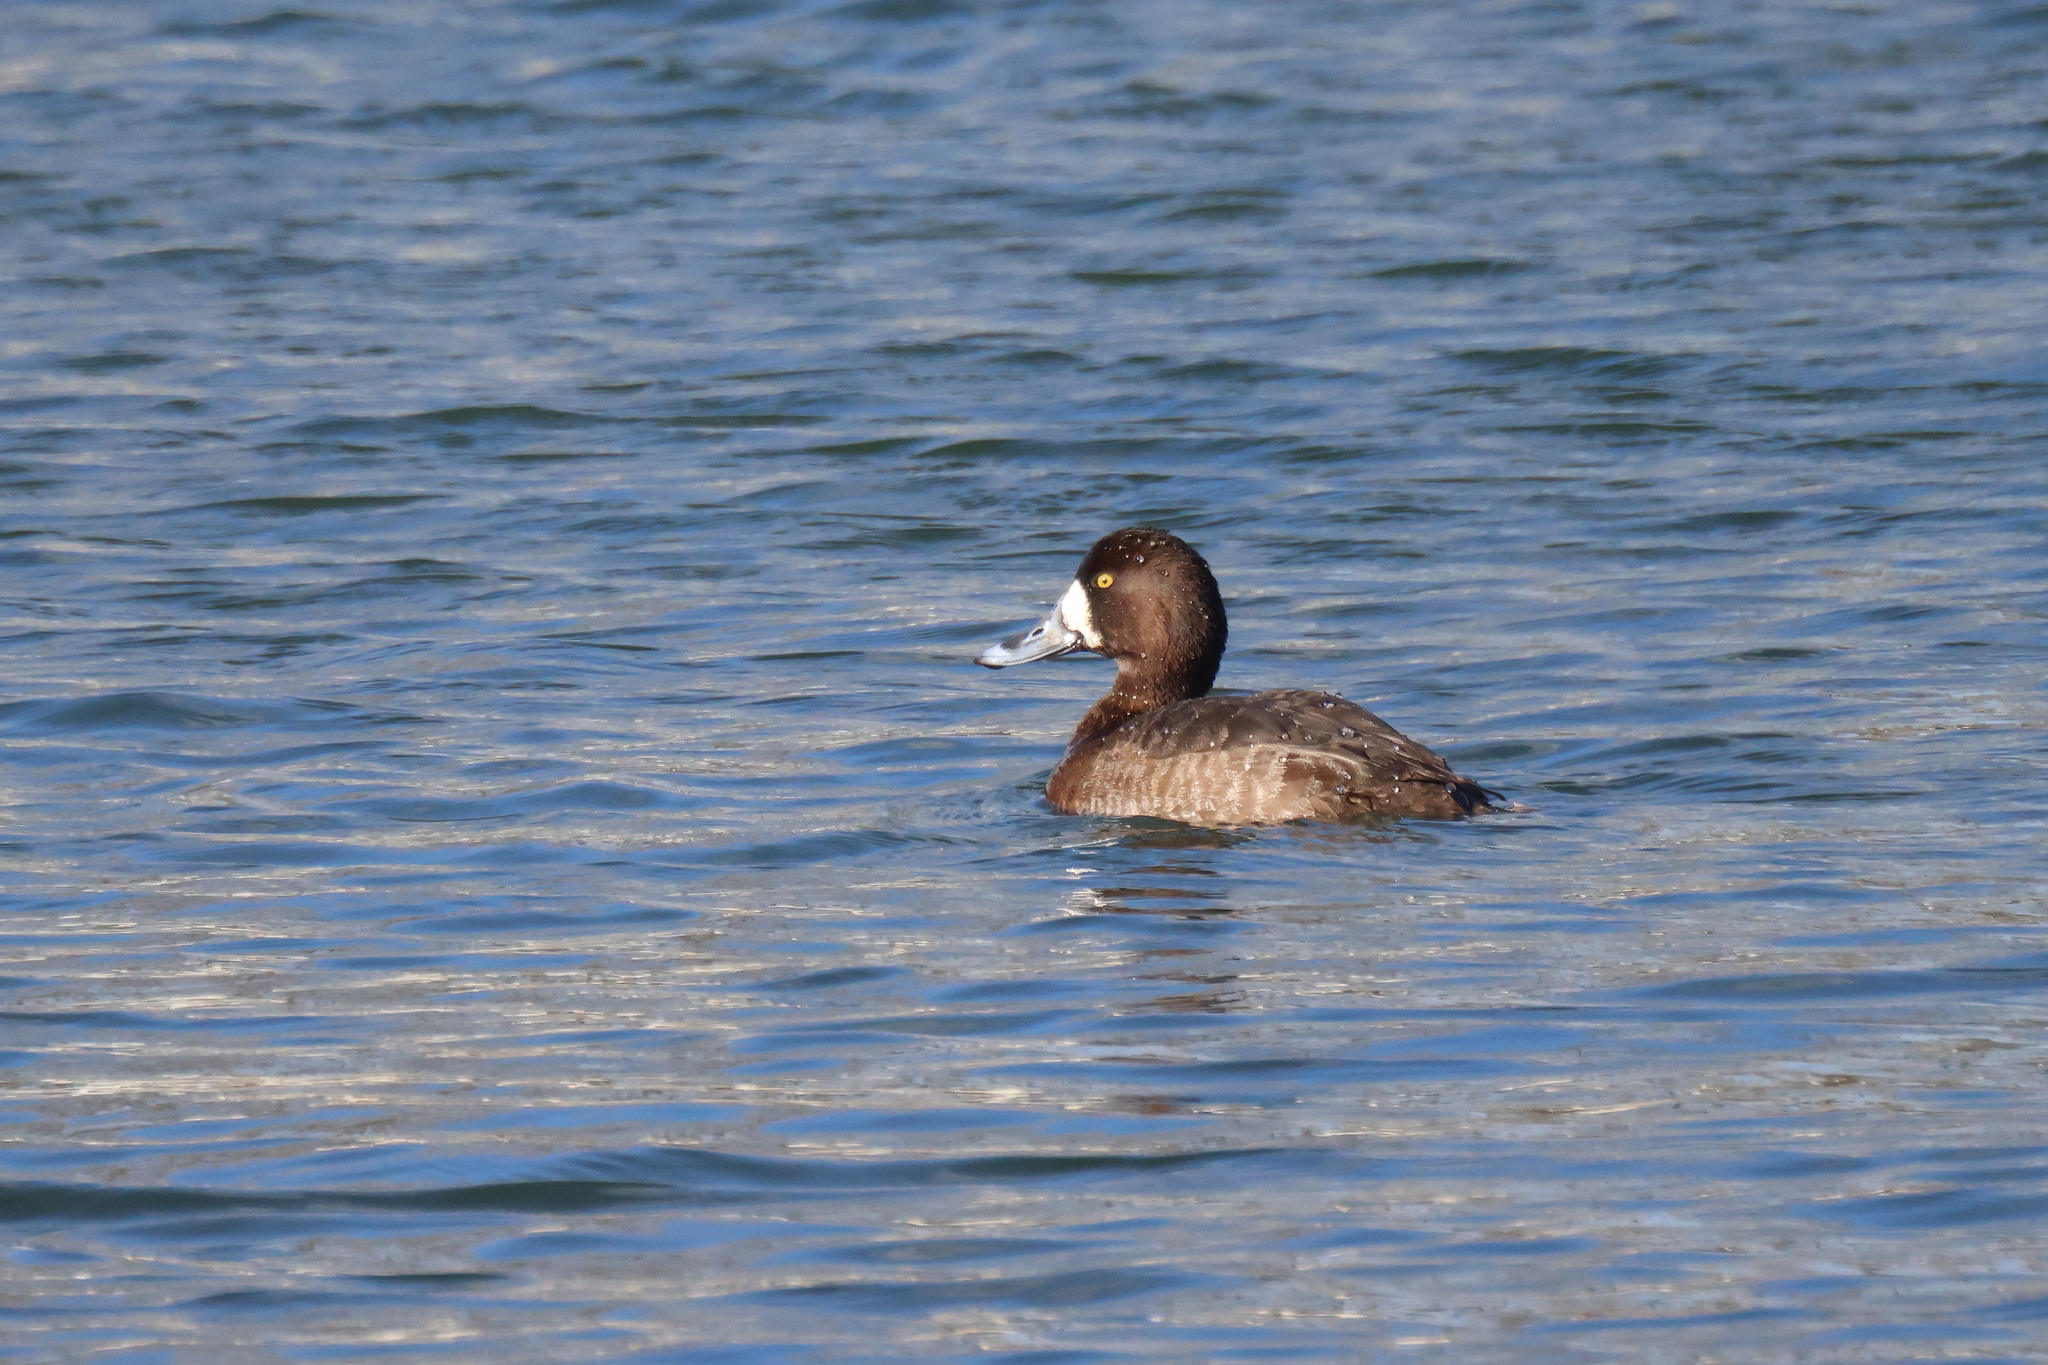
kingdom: Animalia
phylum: Chordata
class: Aves
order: Anseriformes
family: Anatidae
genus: Aythya
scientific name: Aythya marila
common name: Greater scaup
